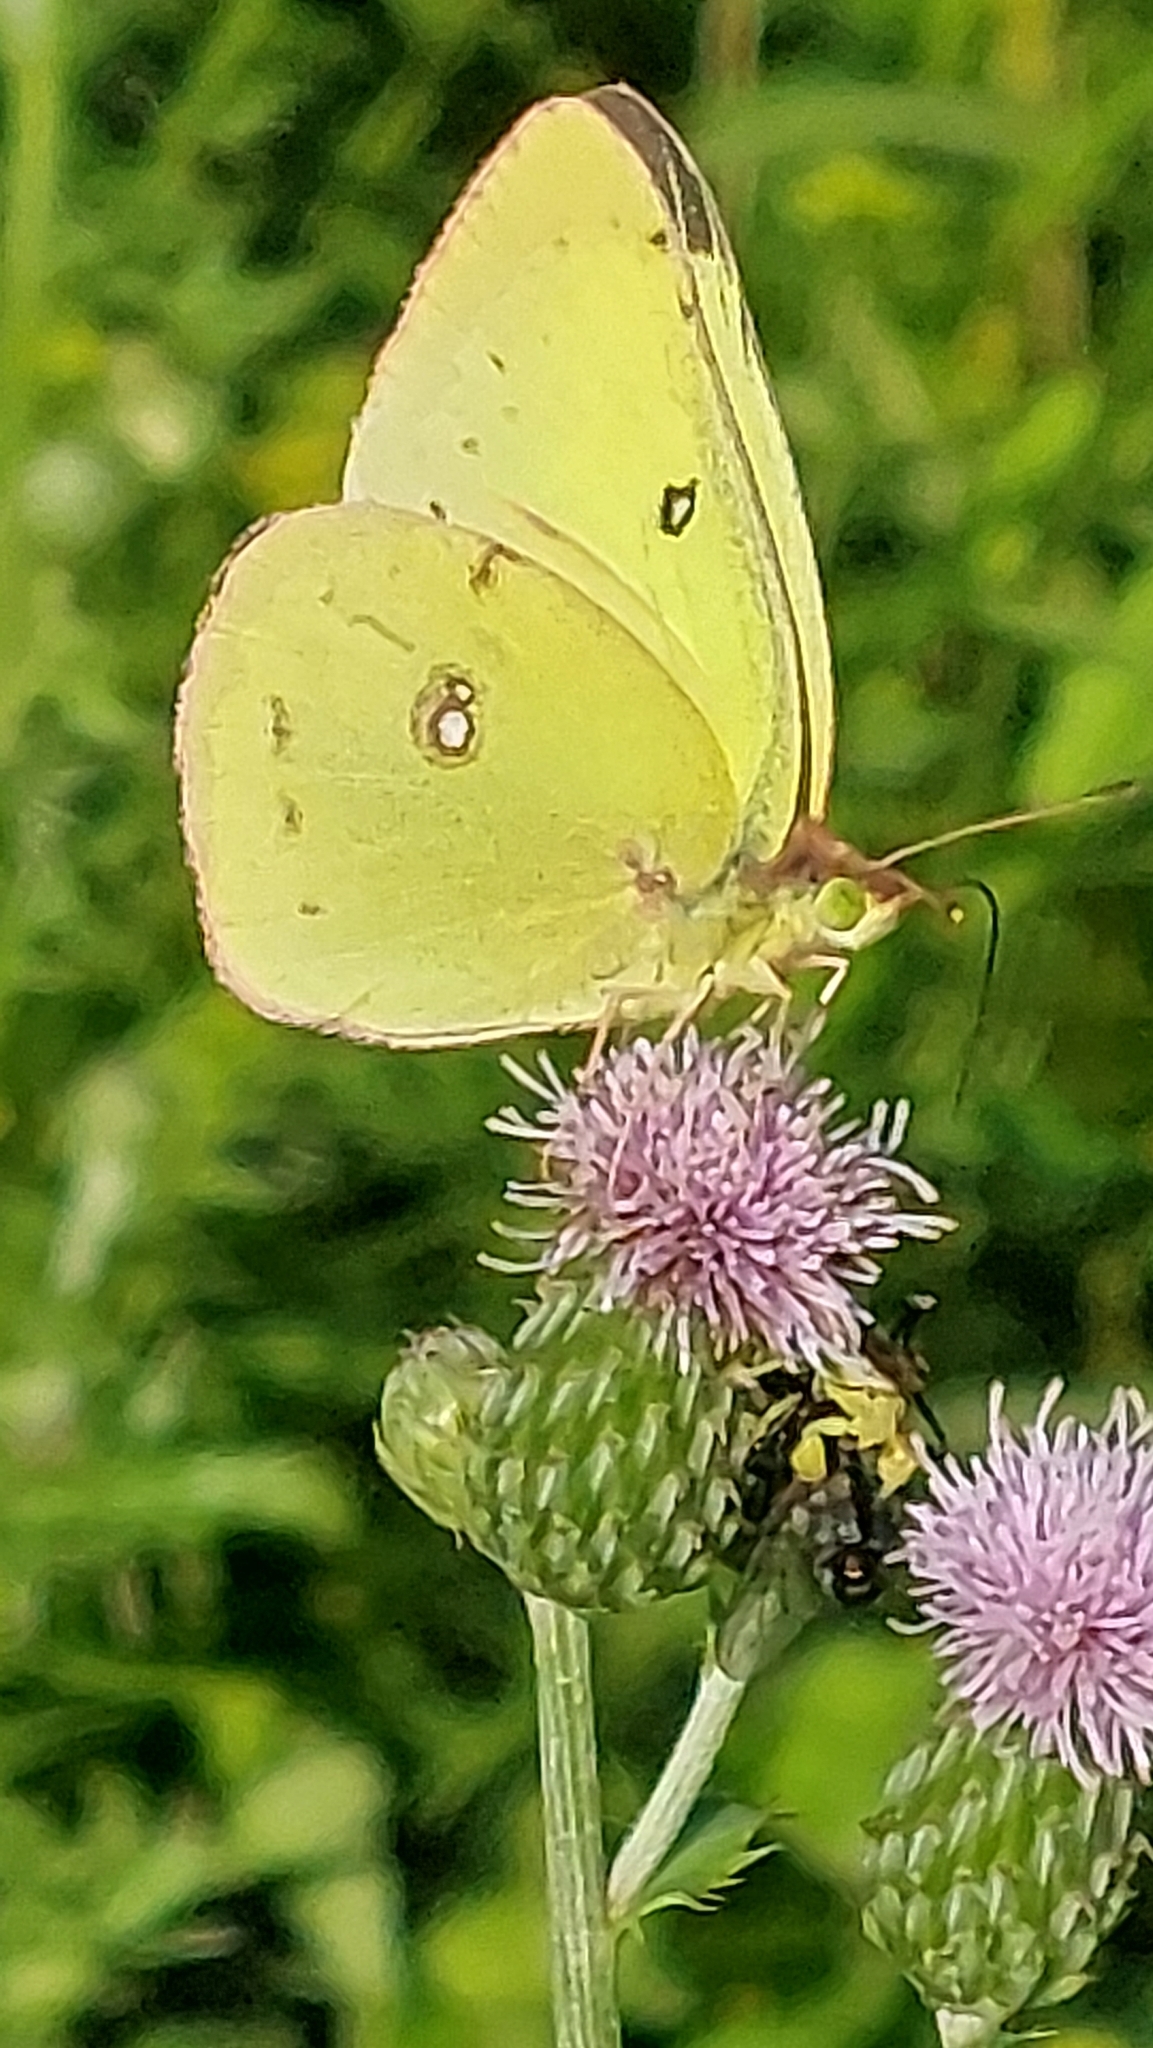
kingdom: Animalia
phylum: Arthropoda
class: Insecta
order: Lepidoptera
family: Pieridae
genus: Colias
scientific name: Colias philodice
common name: Clouded sulphur
